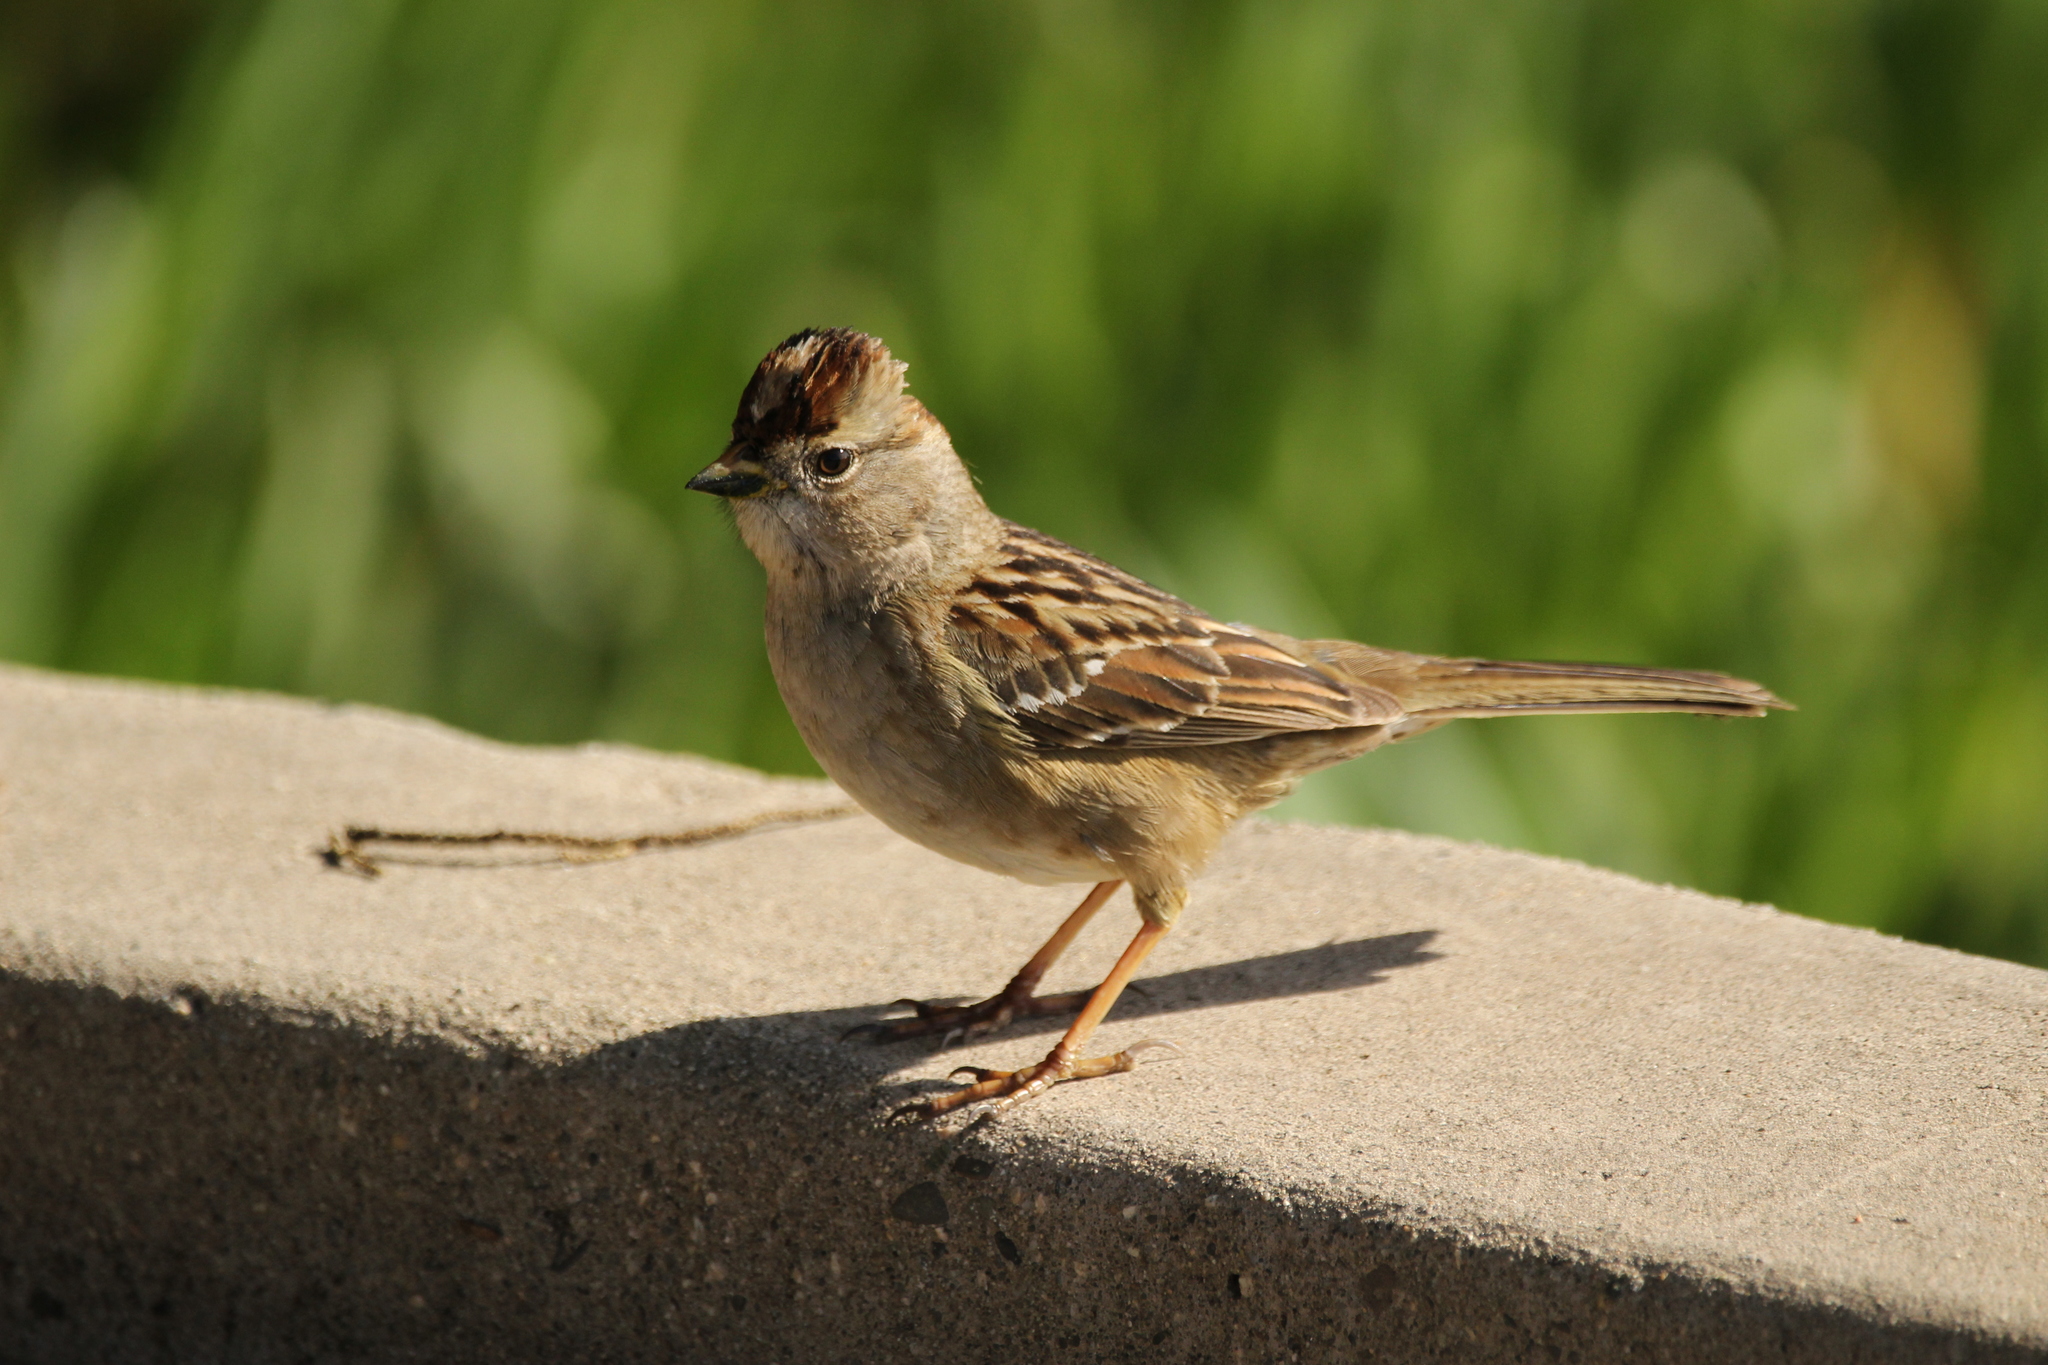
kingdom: Animalia
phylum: Chordata
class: Aves
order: Passeriformes
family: Passerellidae
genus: Zonotrichia
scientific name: Zonotrichia leucophrys
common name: White-crowned sparrow
